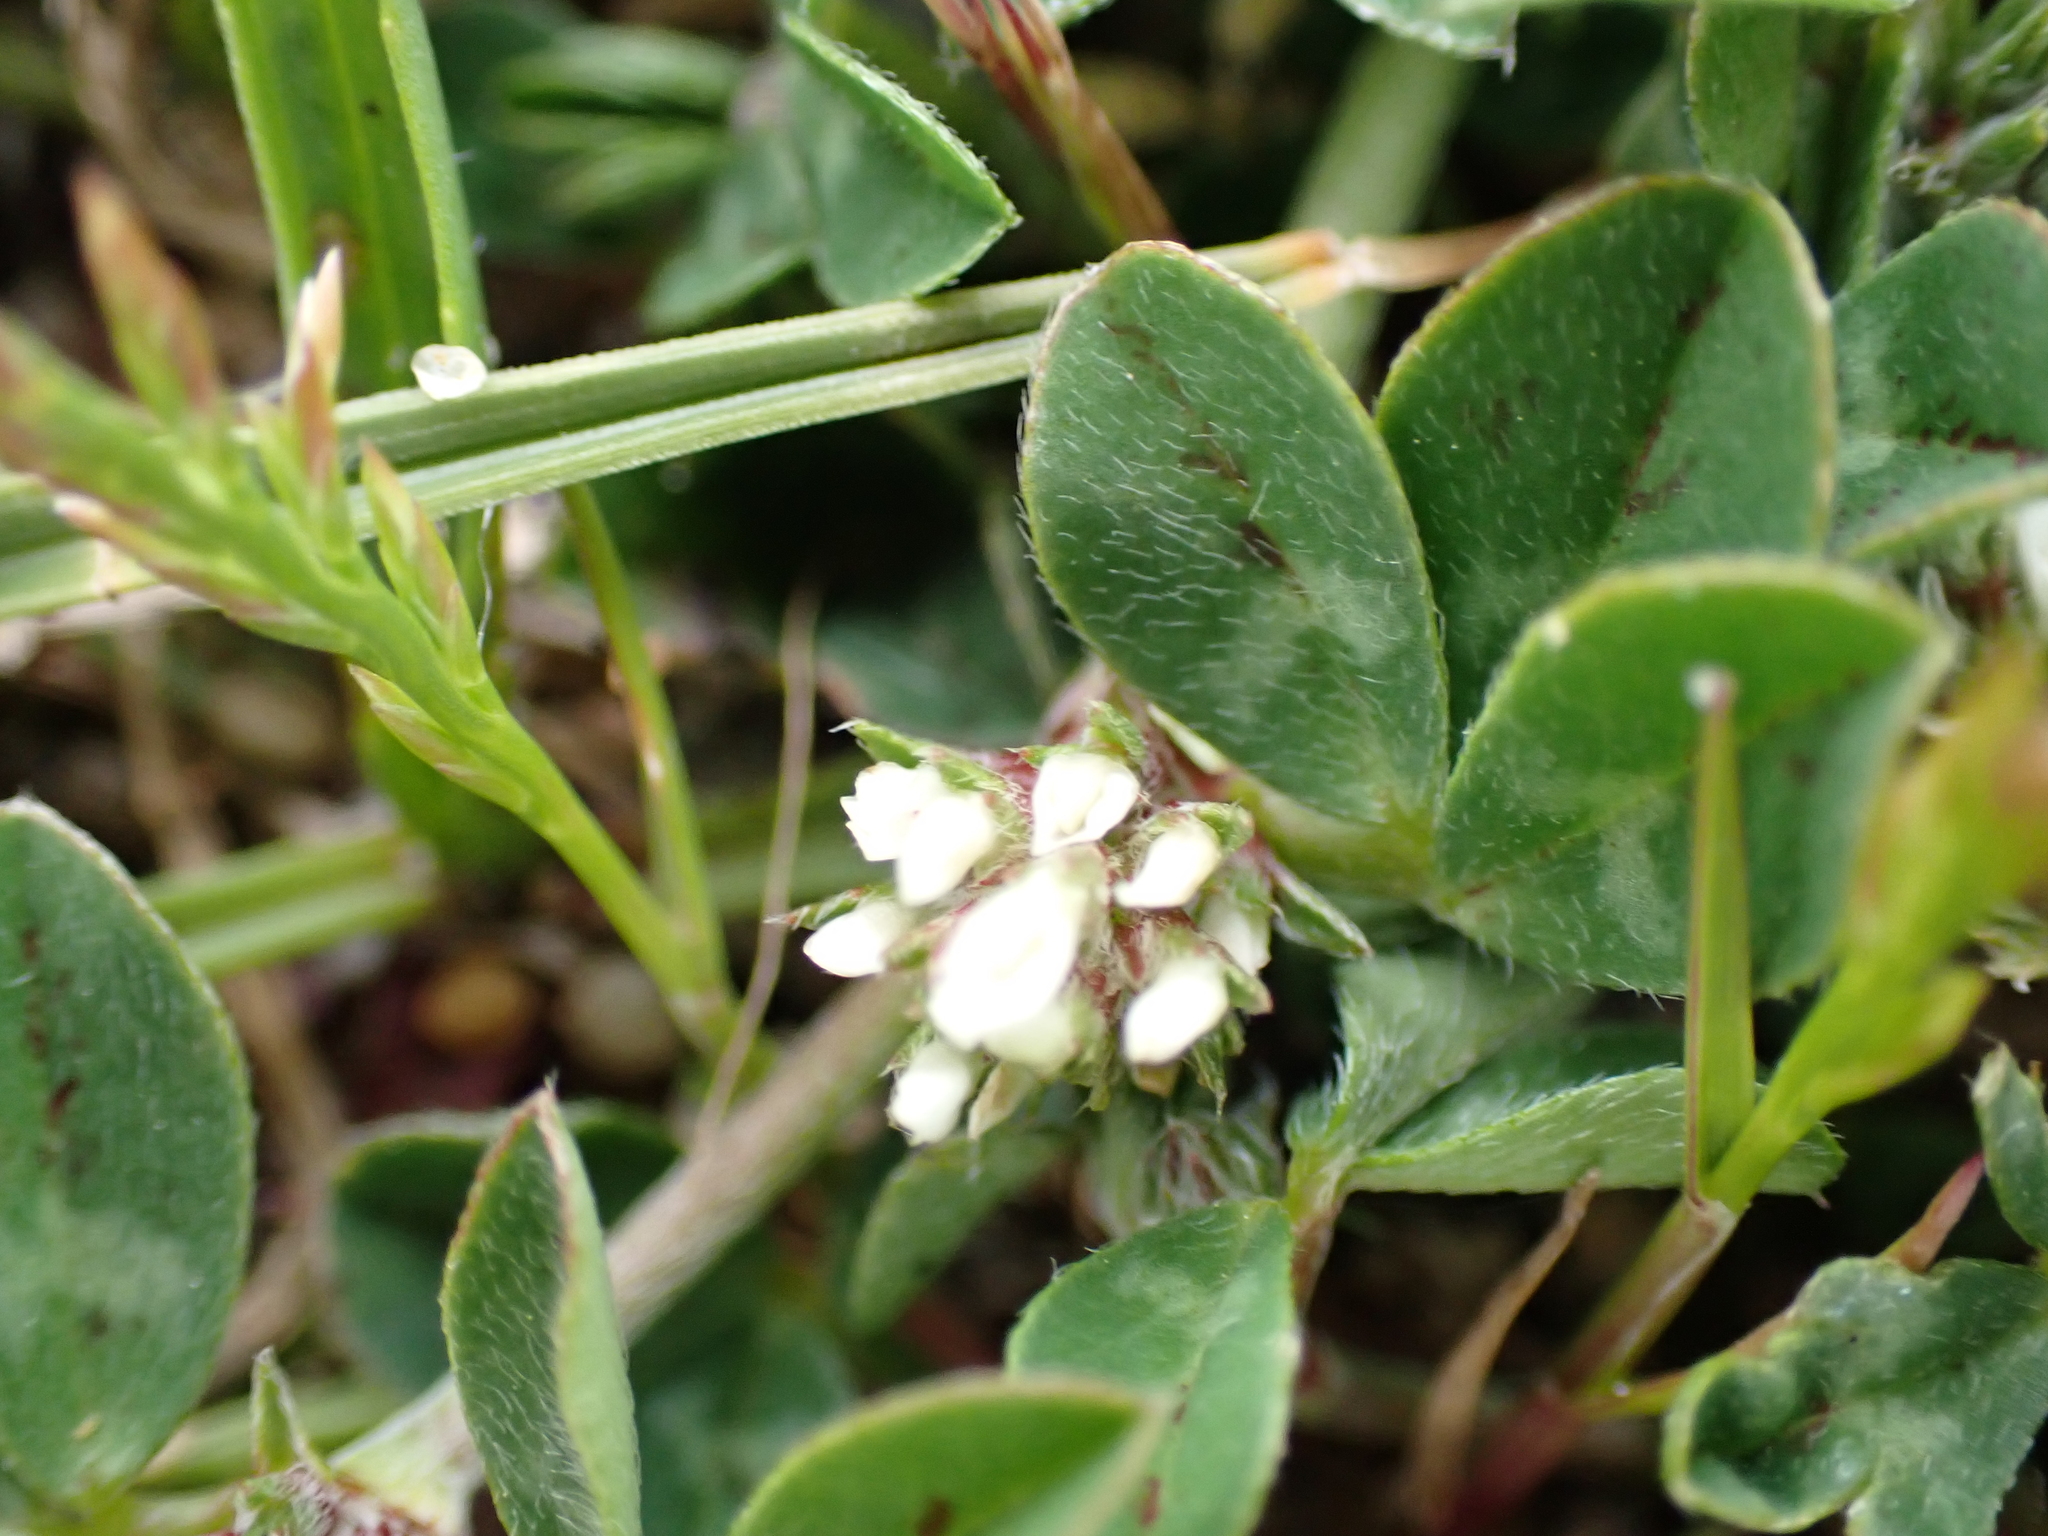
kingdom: Plantae
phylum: Tracheophyta
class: Magnoliopsida
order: Fabales
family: Fabaceae
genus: Trifolium
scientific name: Trifolium scabrum
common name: Rough clover
